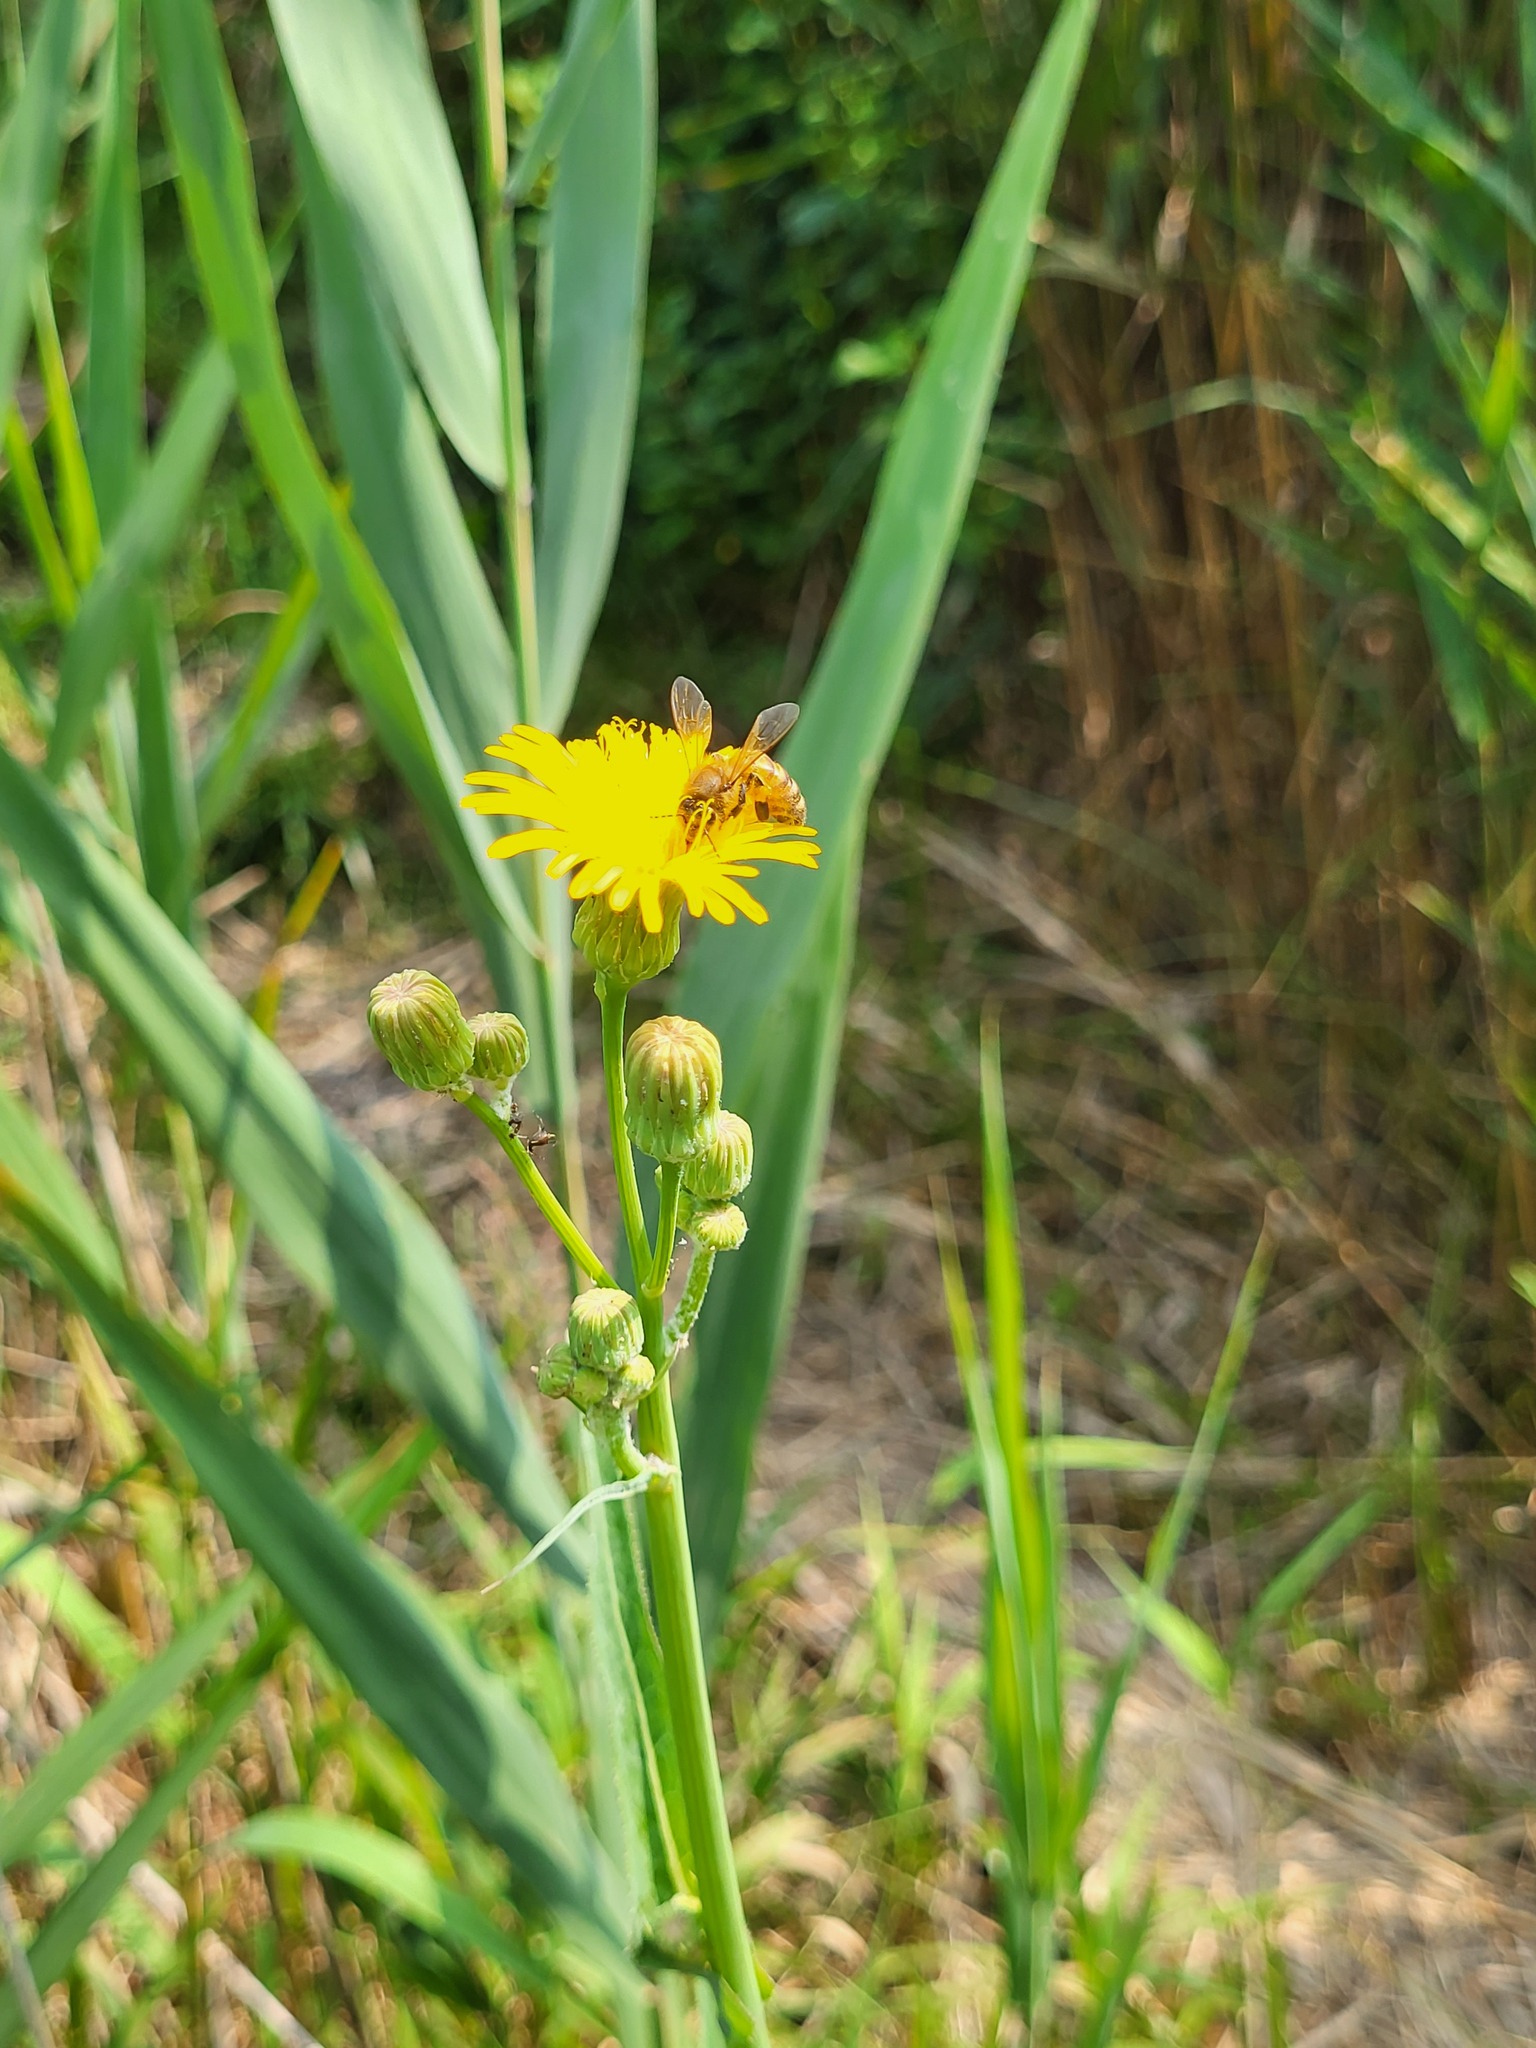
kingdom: Animalia
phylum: Arthropoda
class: Insecta
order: Hymenoptera
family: Apidae
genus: Apis
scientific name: Apis mellifera
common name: Honey bee
